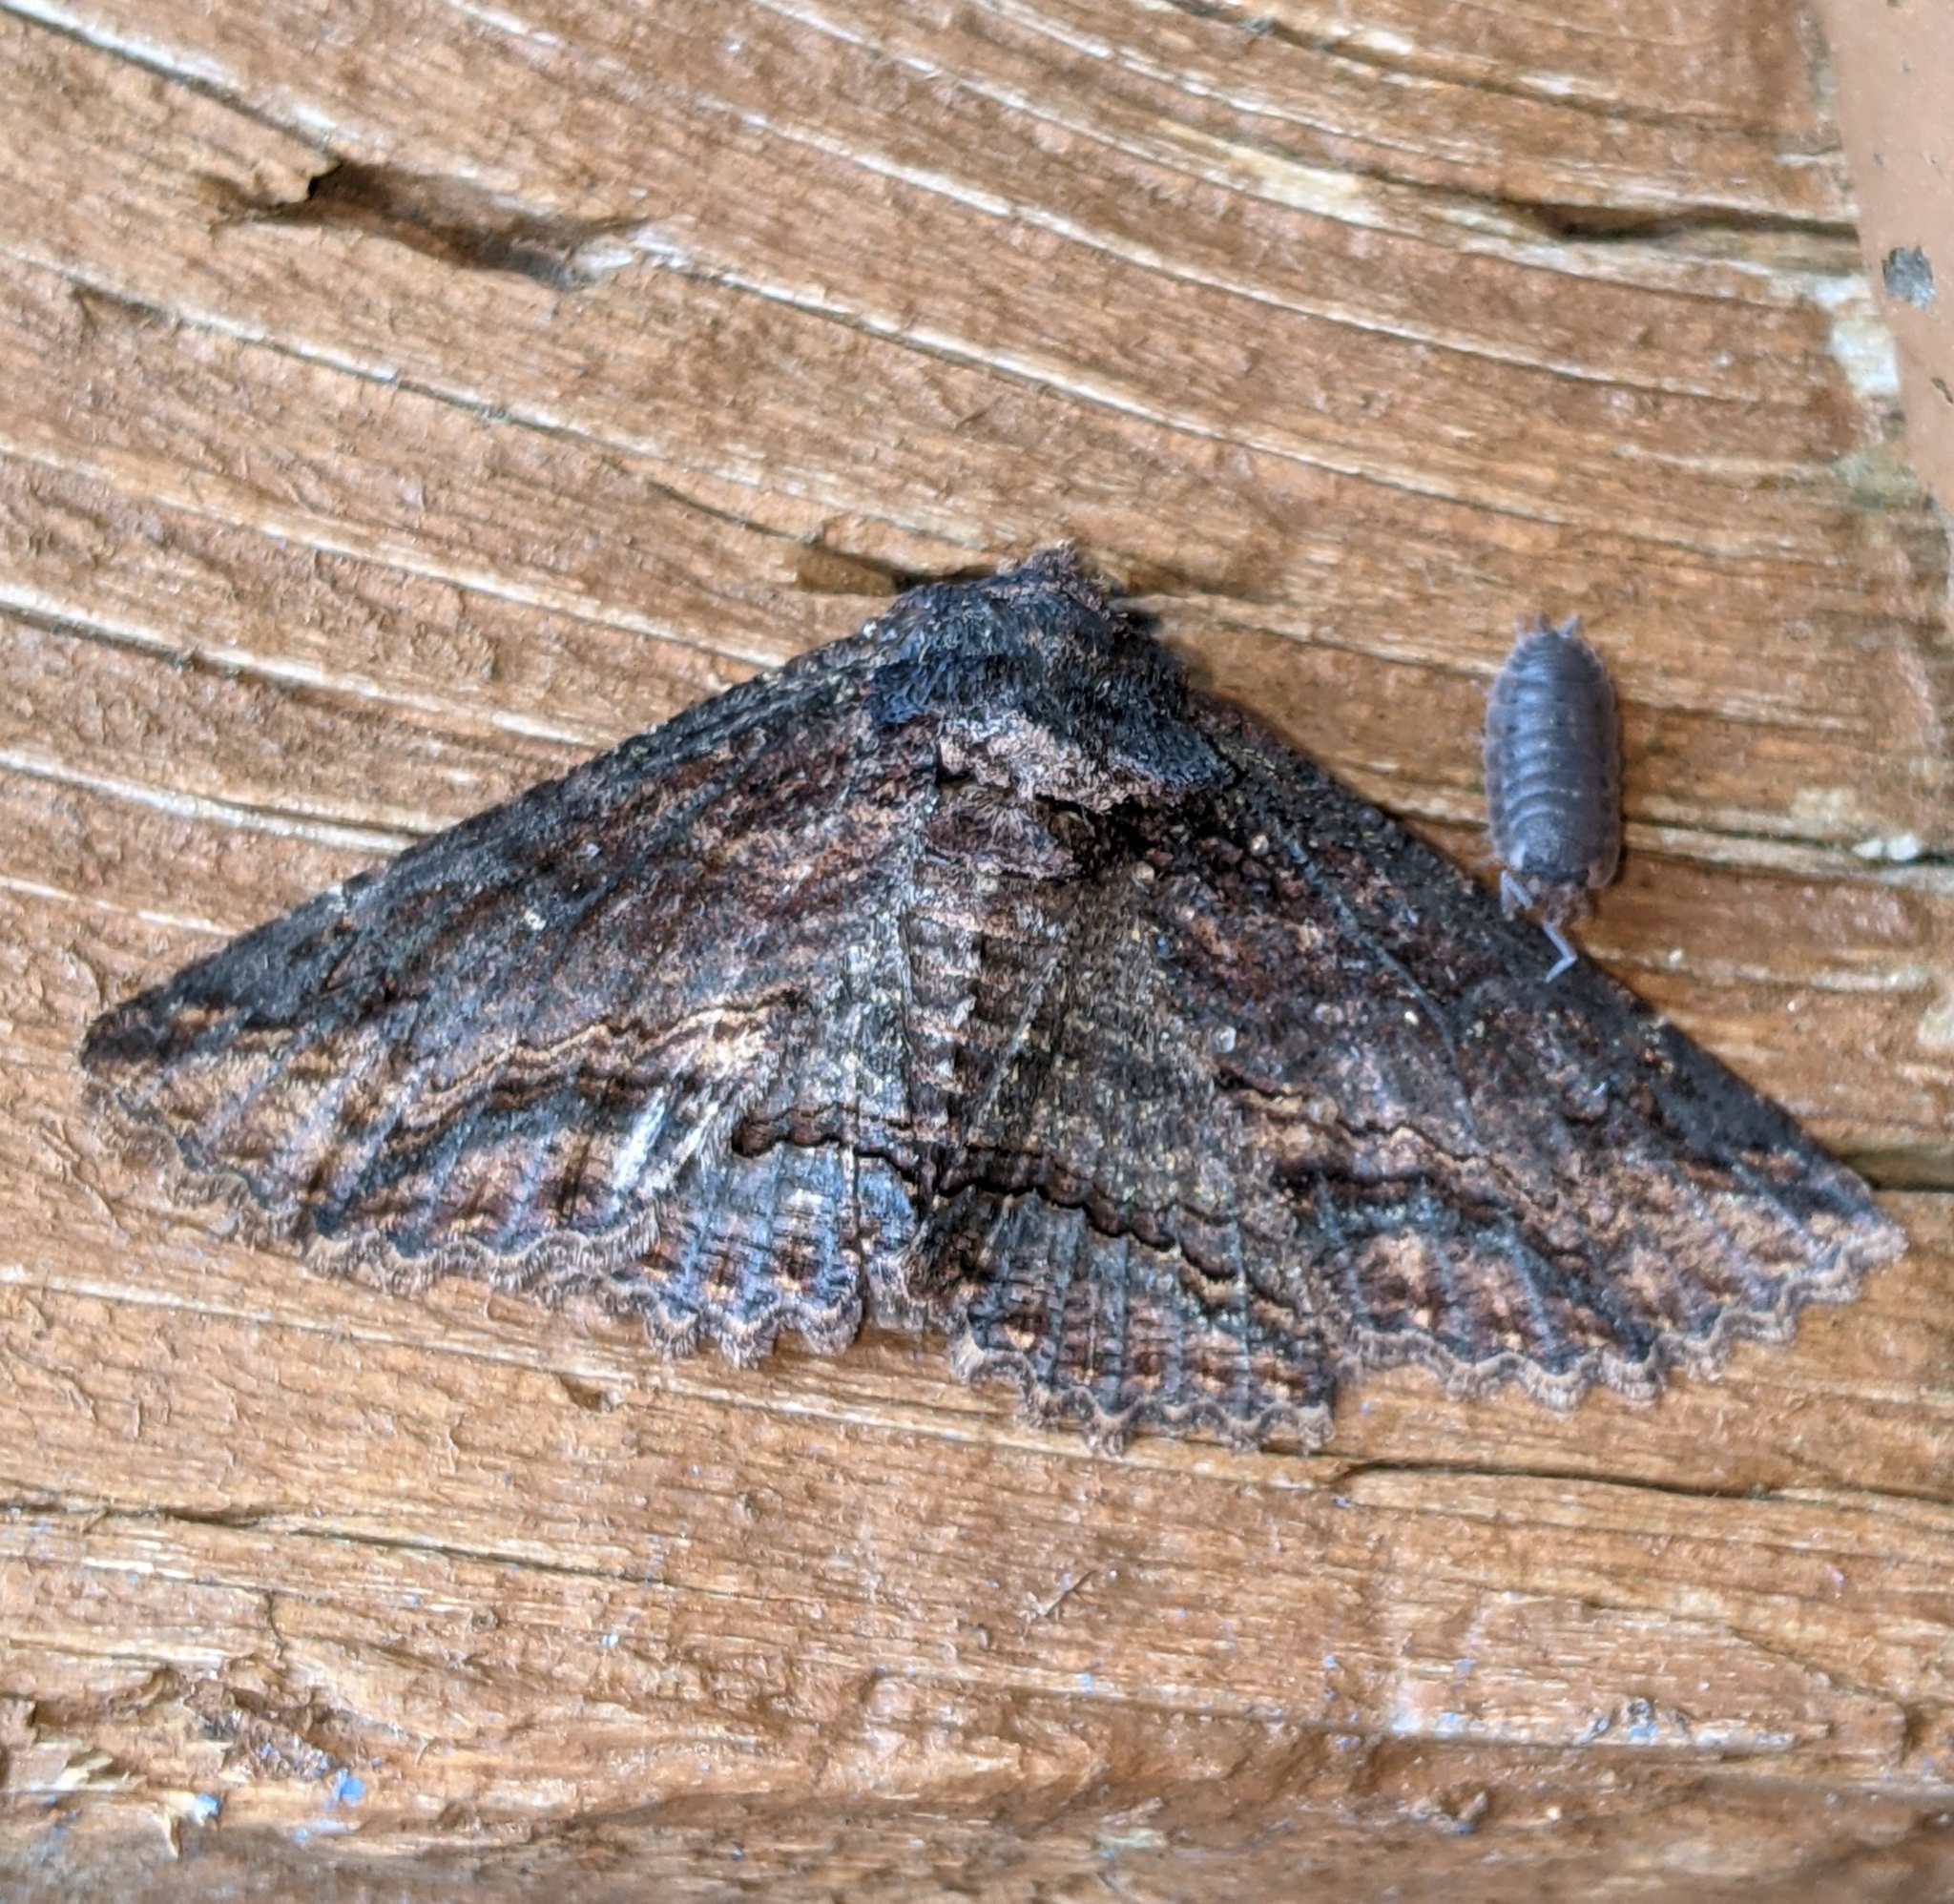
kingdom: Animalia
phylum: Arthropoda
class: Insecta
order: Lepidoptera
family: Erebidae
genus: Zale
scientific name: Zale lunata
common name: Lunate zale moth
